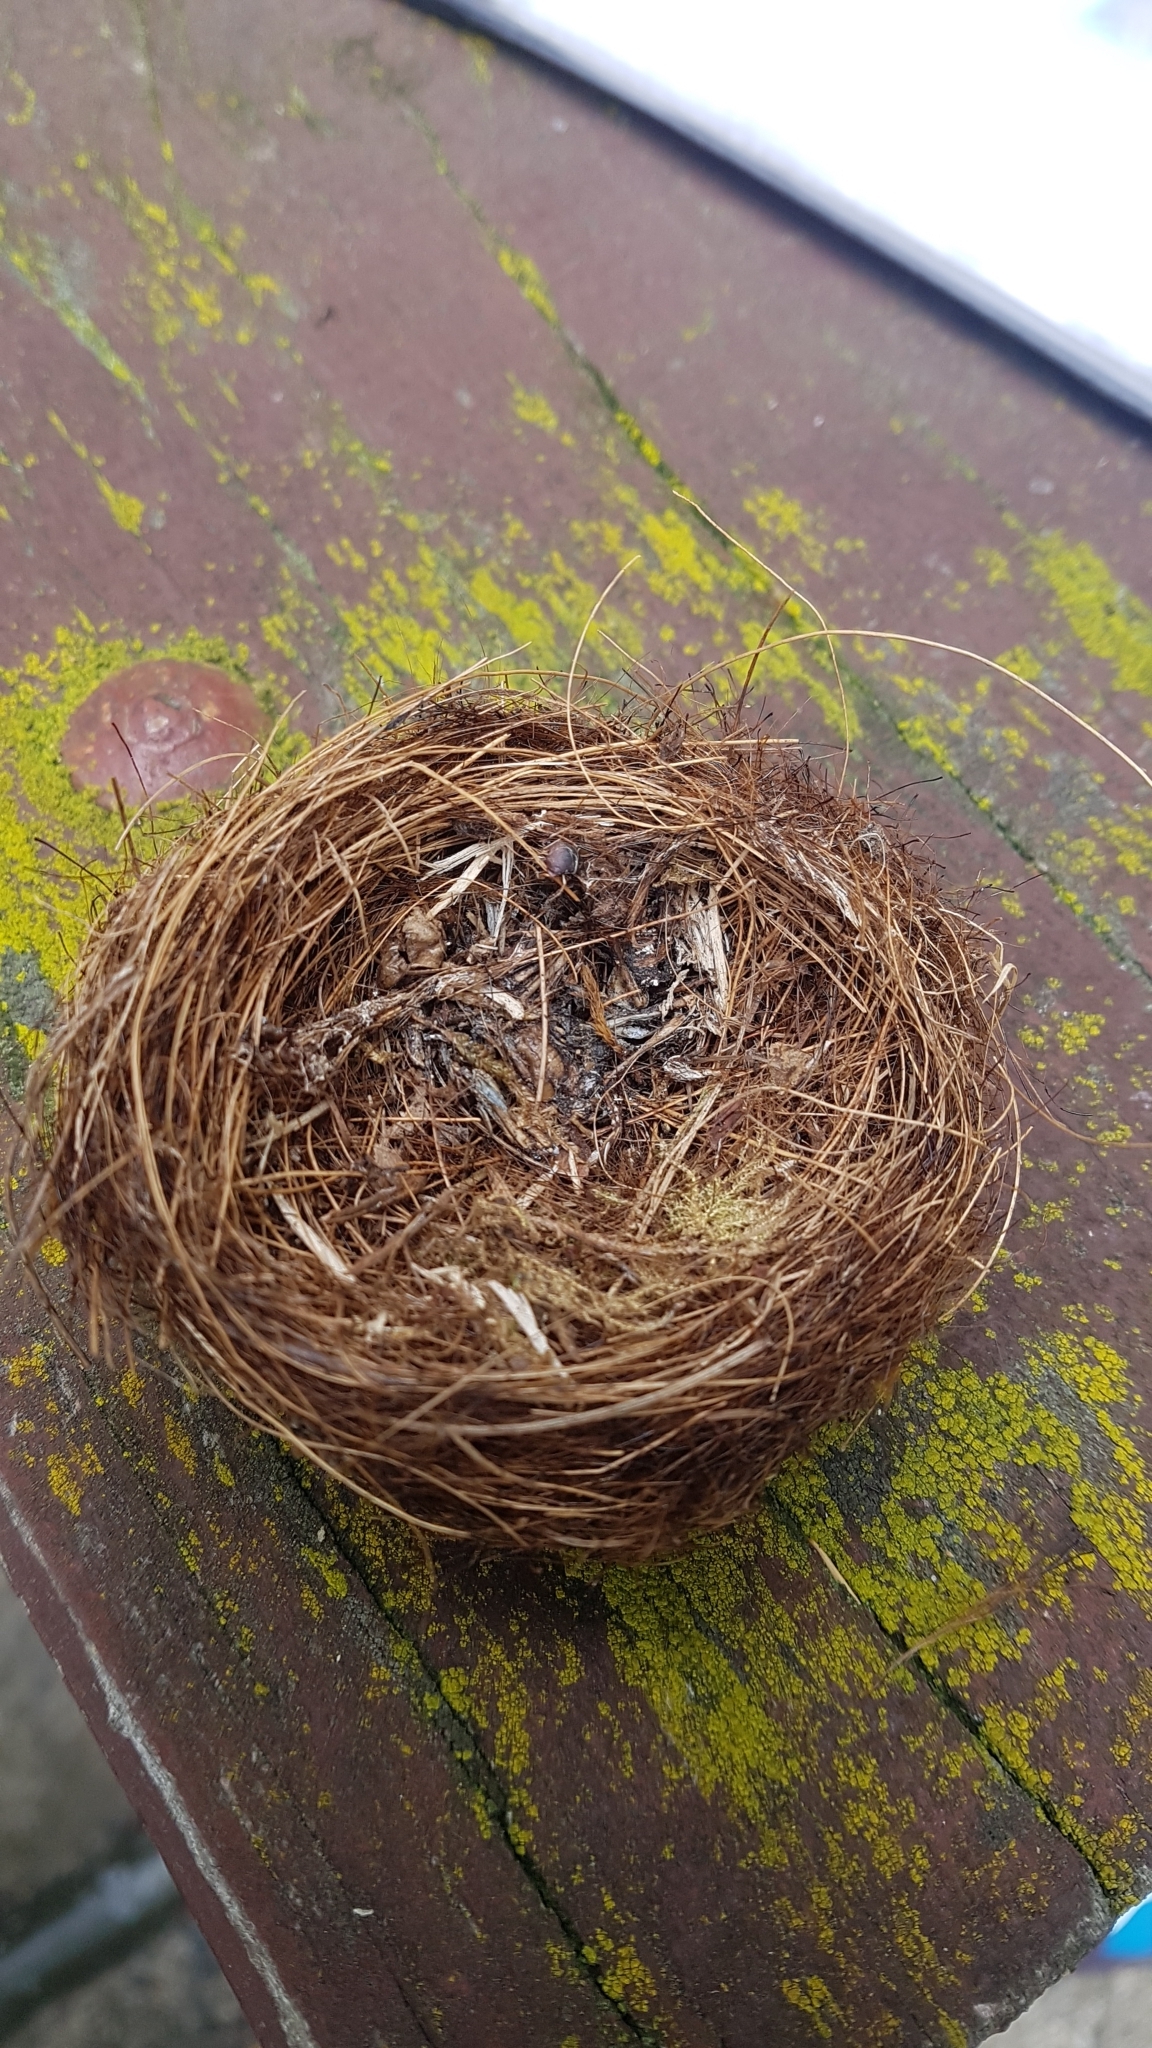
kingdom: Animalia
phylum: Chordata
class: Aves
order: Passeriformes
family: Zosteropidae
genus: Zosterops
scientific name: Zosterops lateralis
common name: Silvereye
